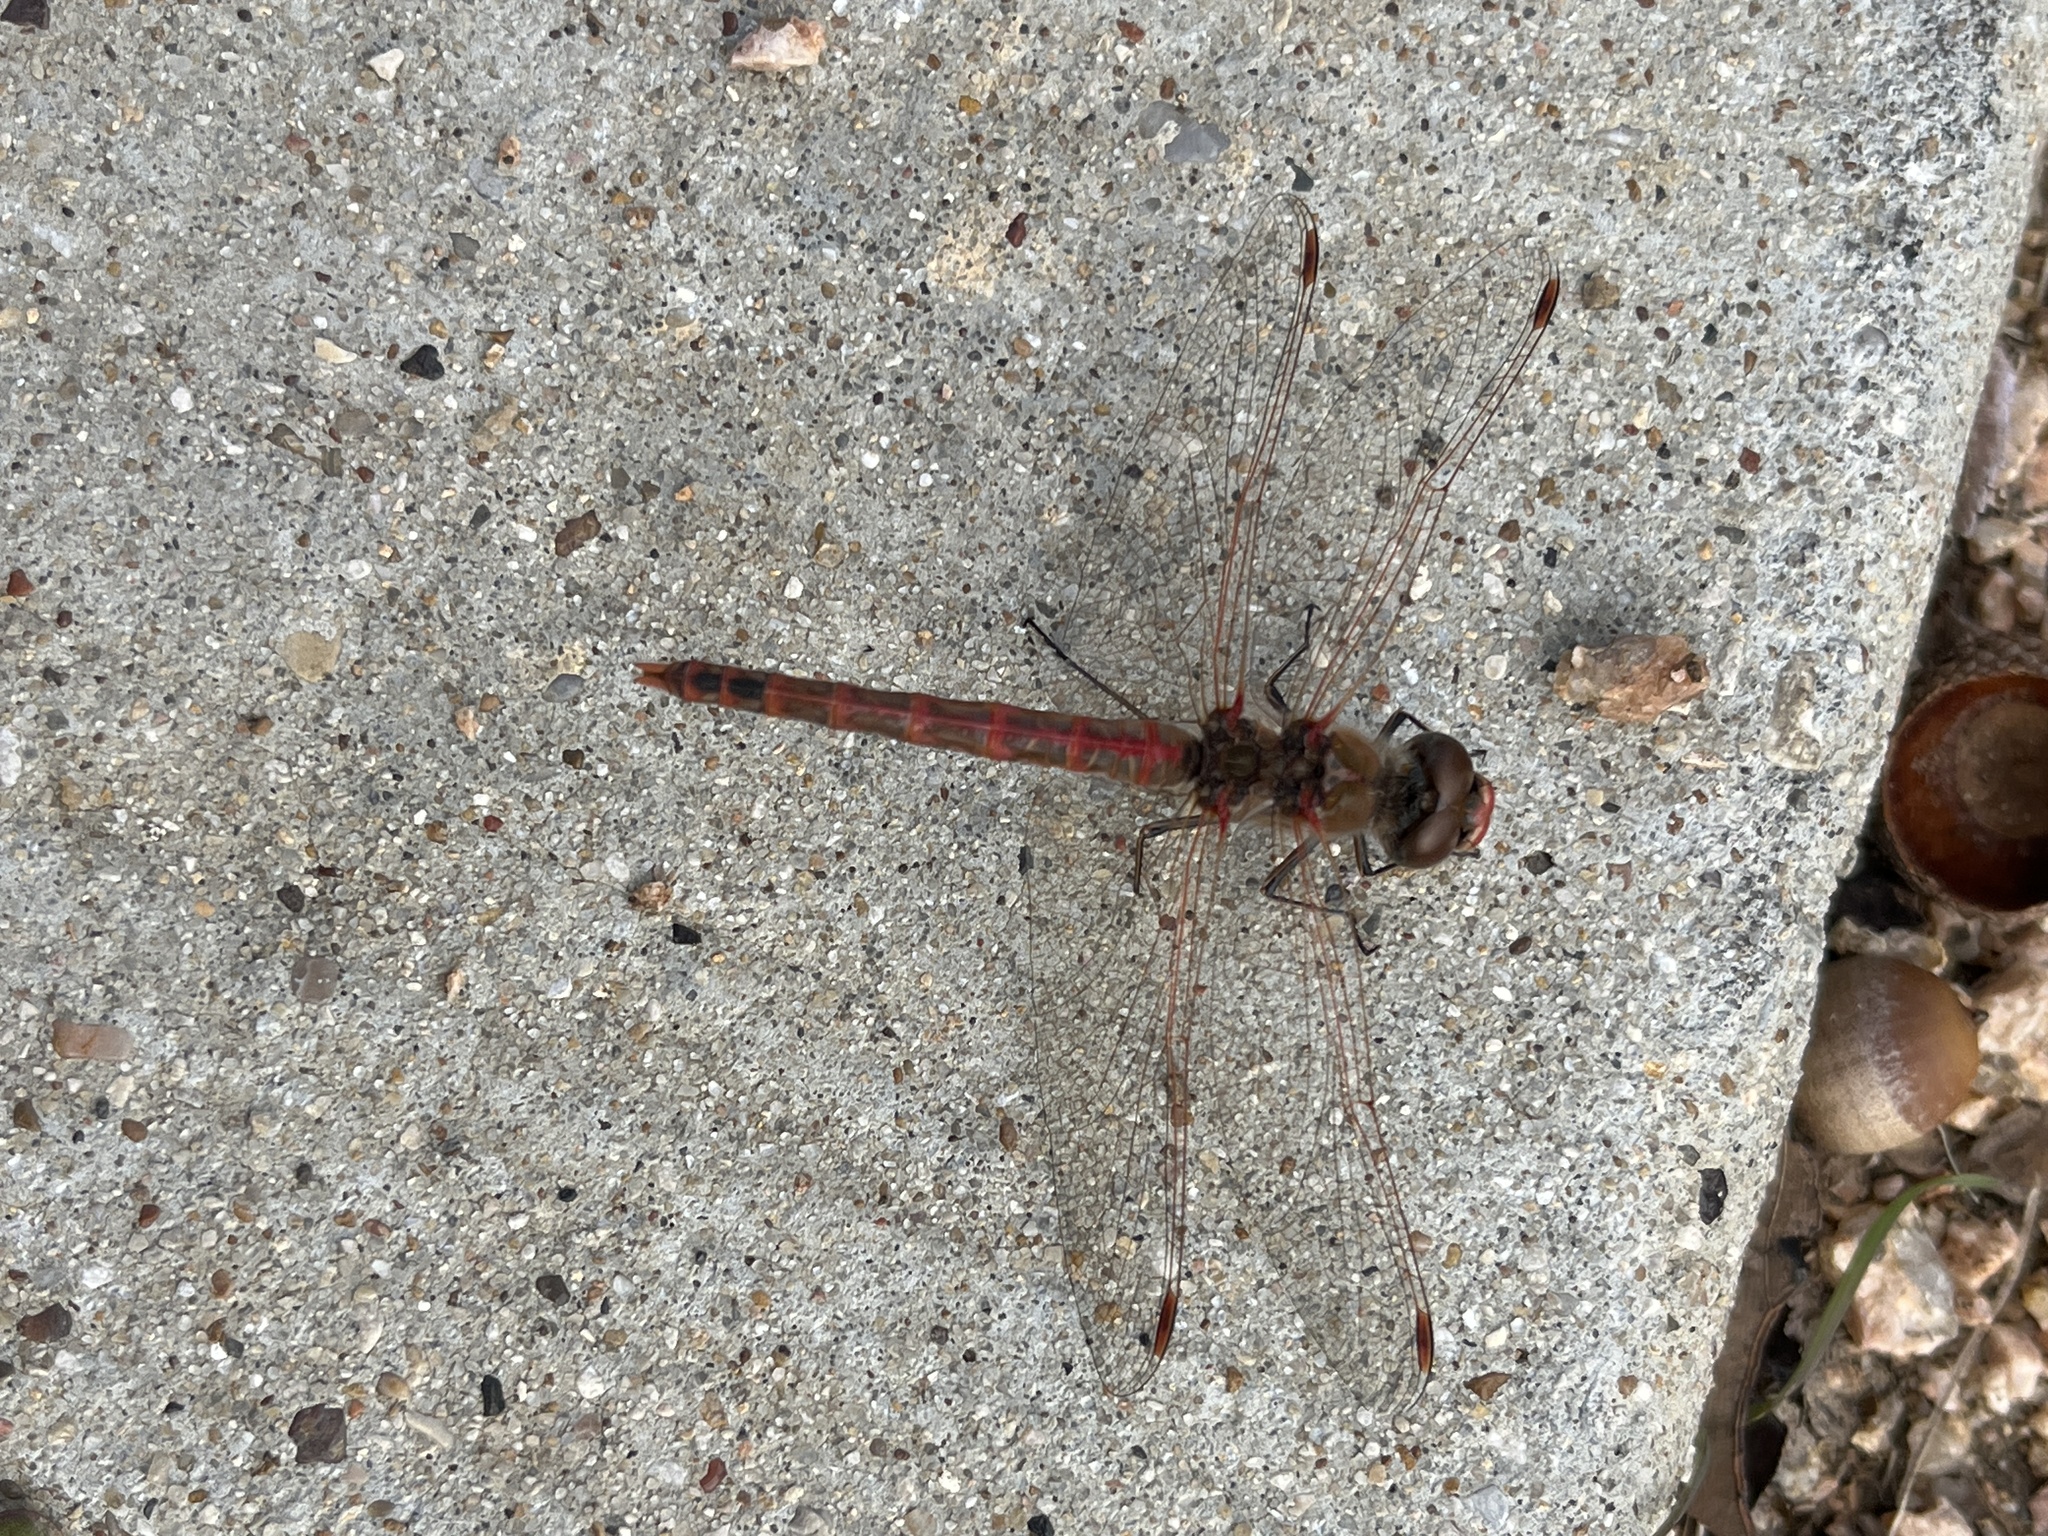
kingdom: Animalia
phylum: Arthropoda
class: Insecta
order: Odonata
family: Libellulidae
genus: Sympetrum
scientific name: Sympetrum corruptum
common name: Variegated meadowhawk
